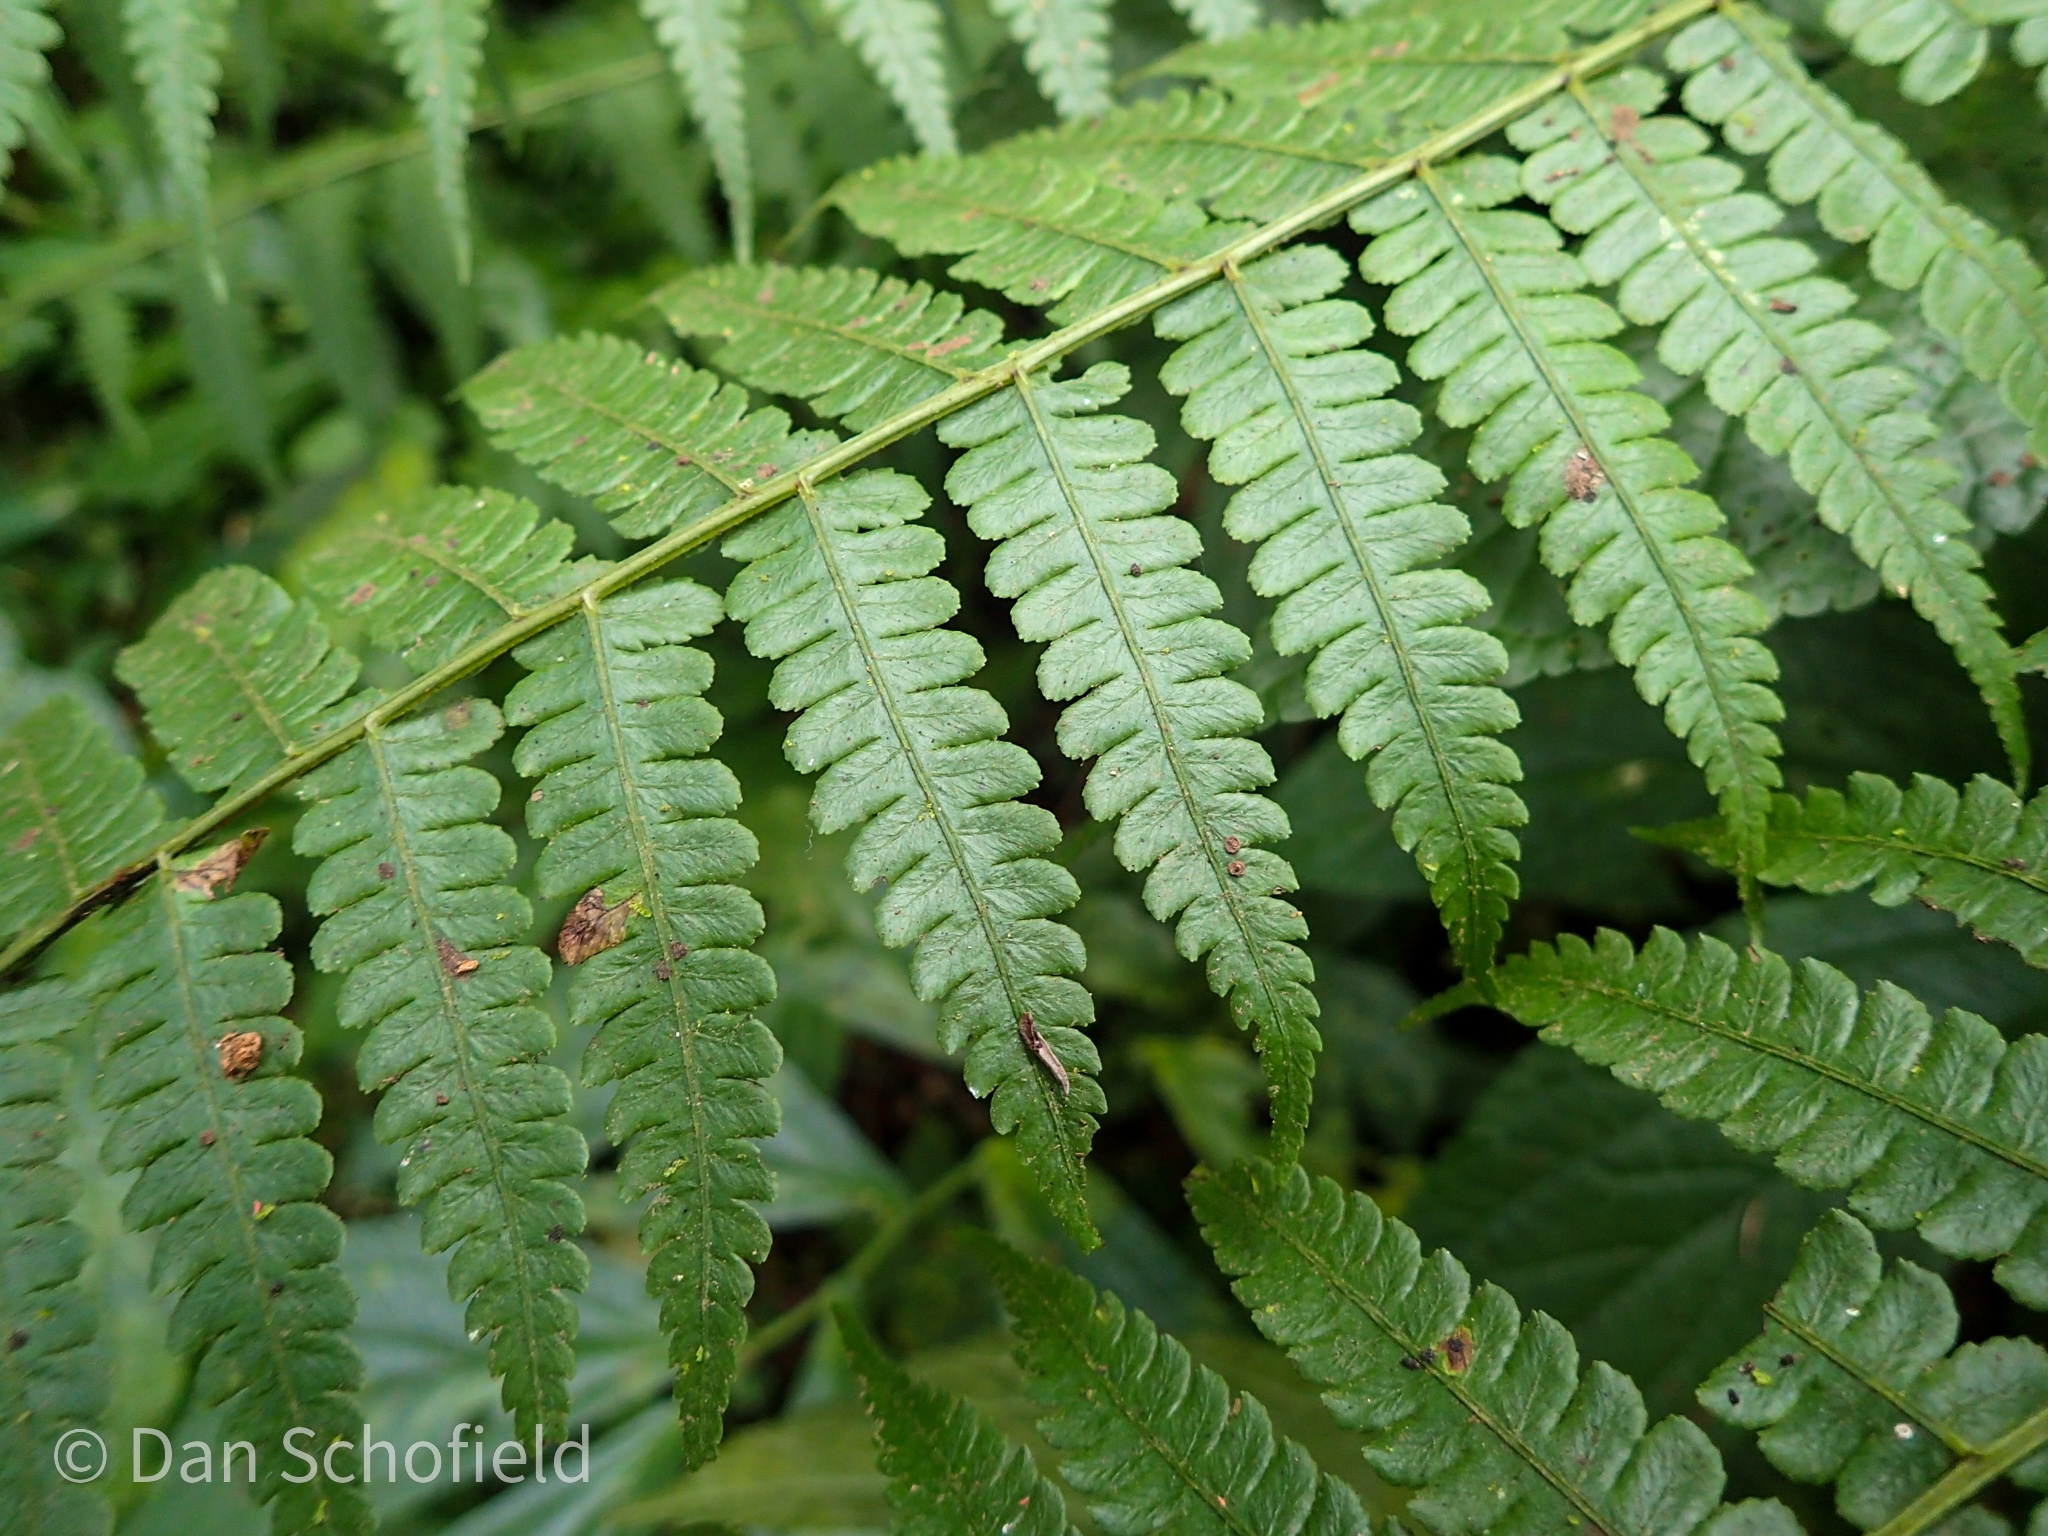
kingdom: Plantae
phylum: Tracheophyta
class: Polypodiopsida
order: Polypodiales
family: Athyriaceae
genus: Diplazium
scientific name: Diplazium laxifrons
